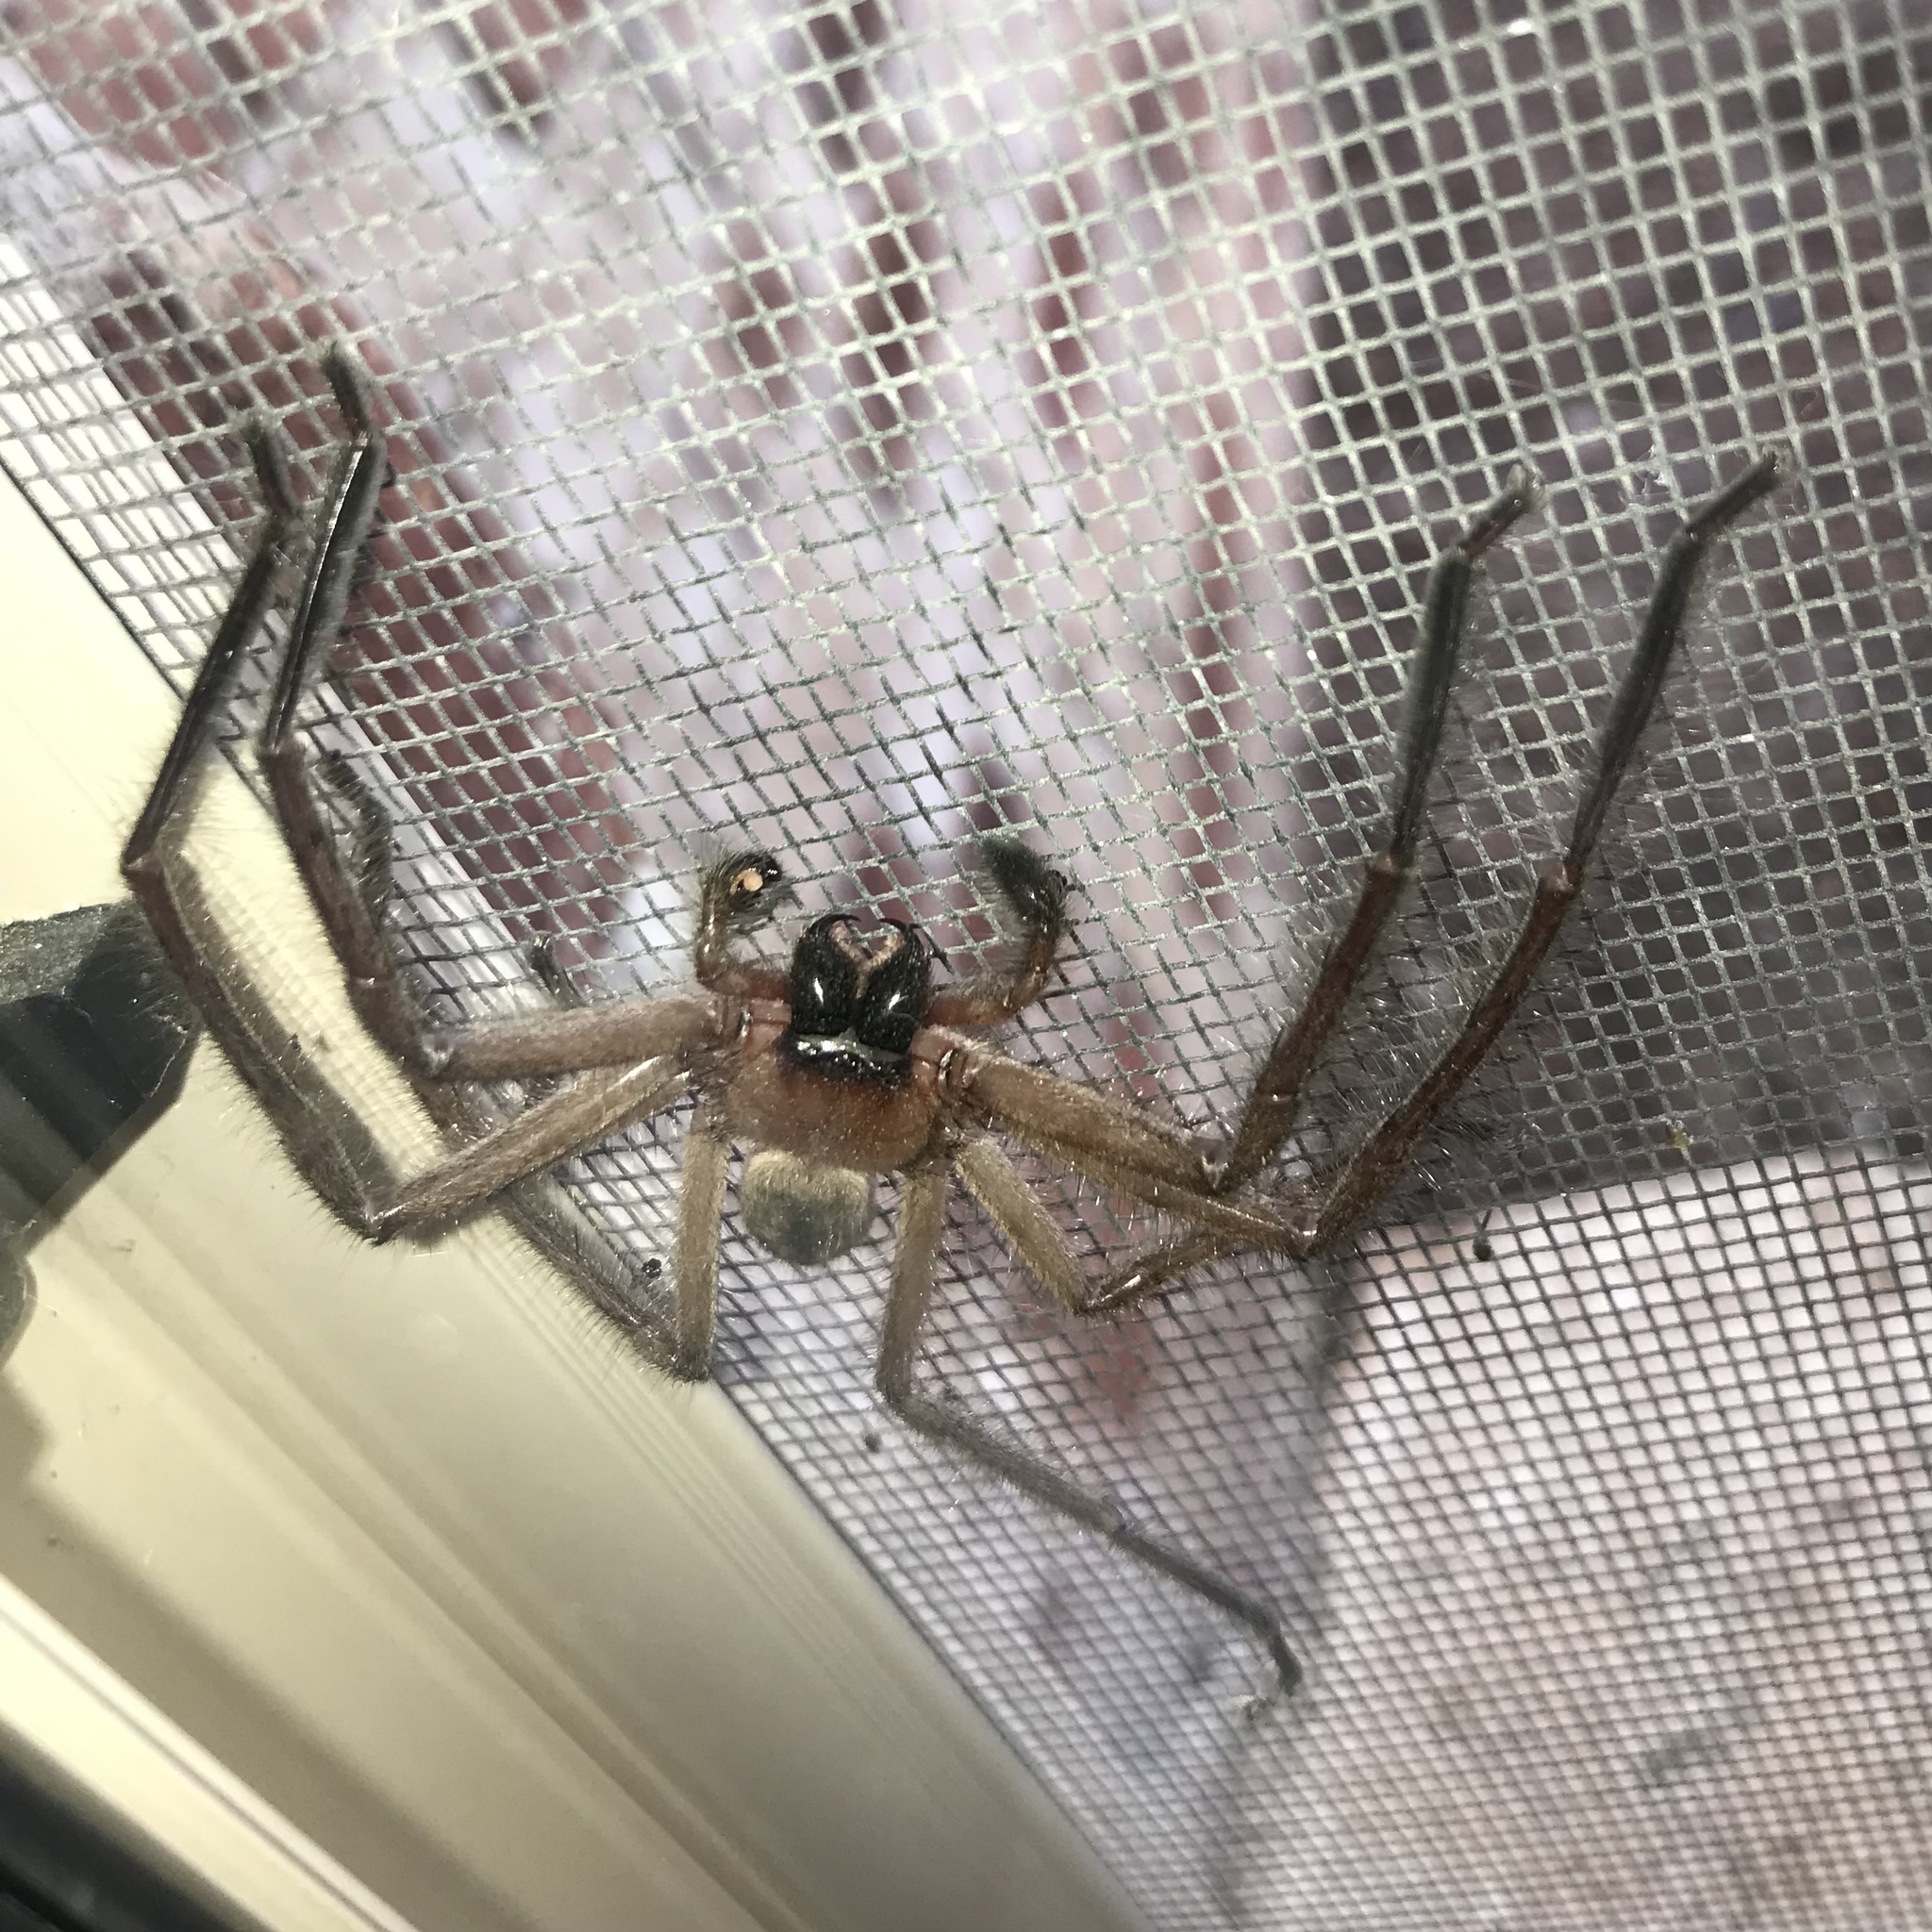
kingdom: Animalia
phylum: Arthropoda
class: Arachnida
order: Araneae
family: Sparassidae
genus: Delena
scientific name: Delena cancerides
